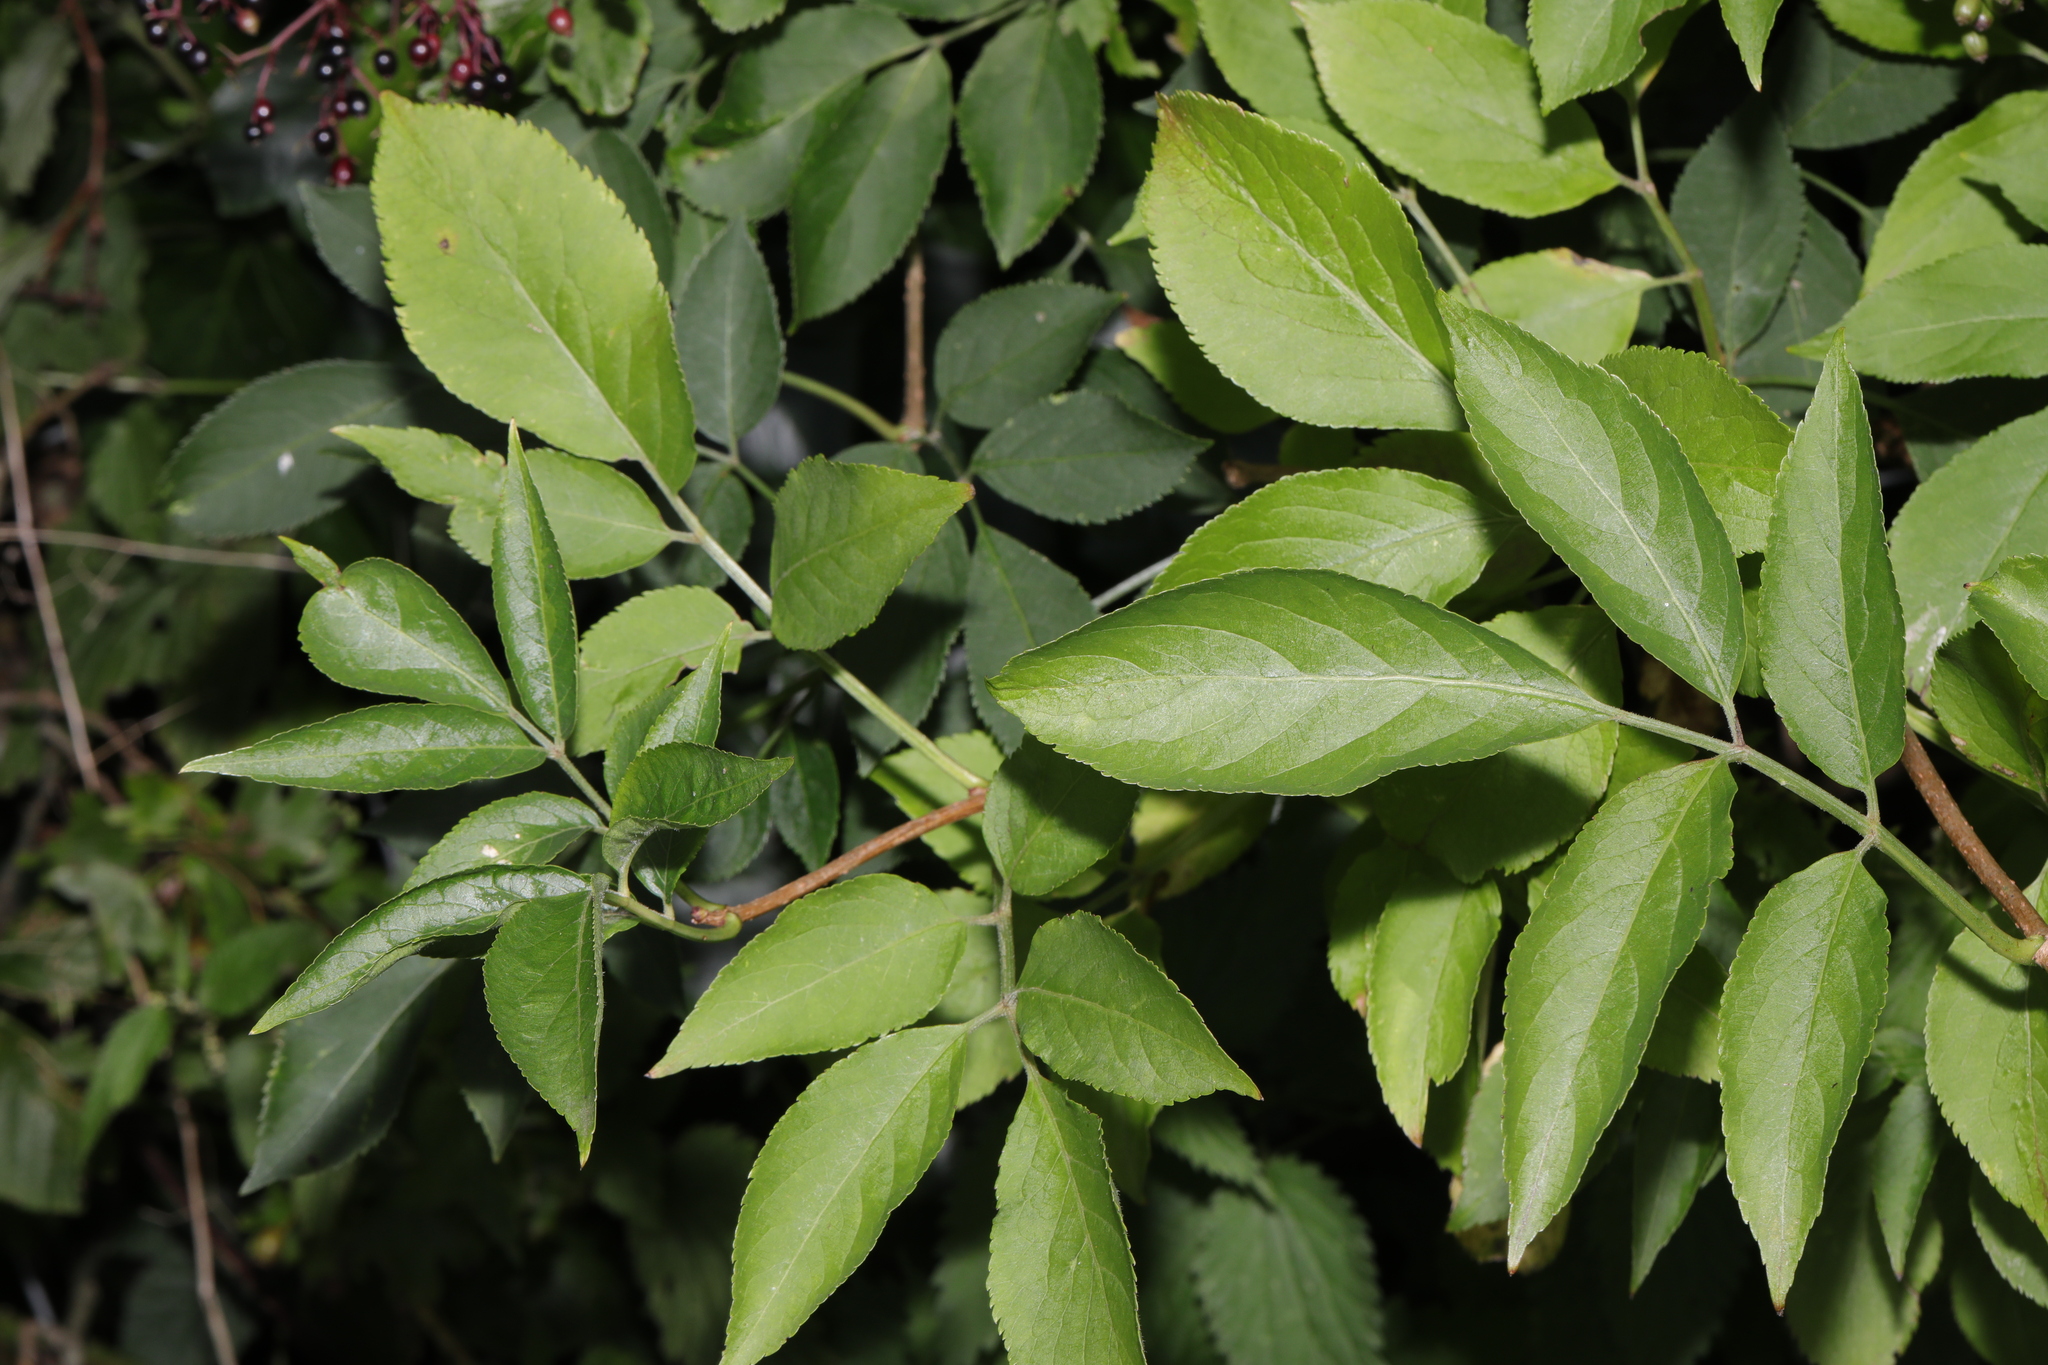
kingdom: Plantae
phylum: Tracheophyta
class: Magnoliopsida
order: Dipsacales
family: Viburnaceae
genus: Sambucus
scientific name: Sambucus nigra
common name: Elder
